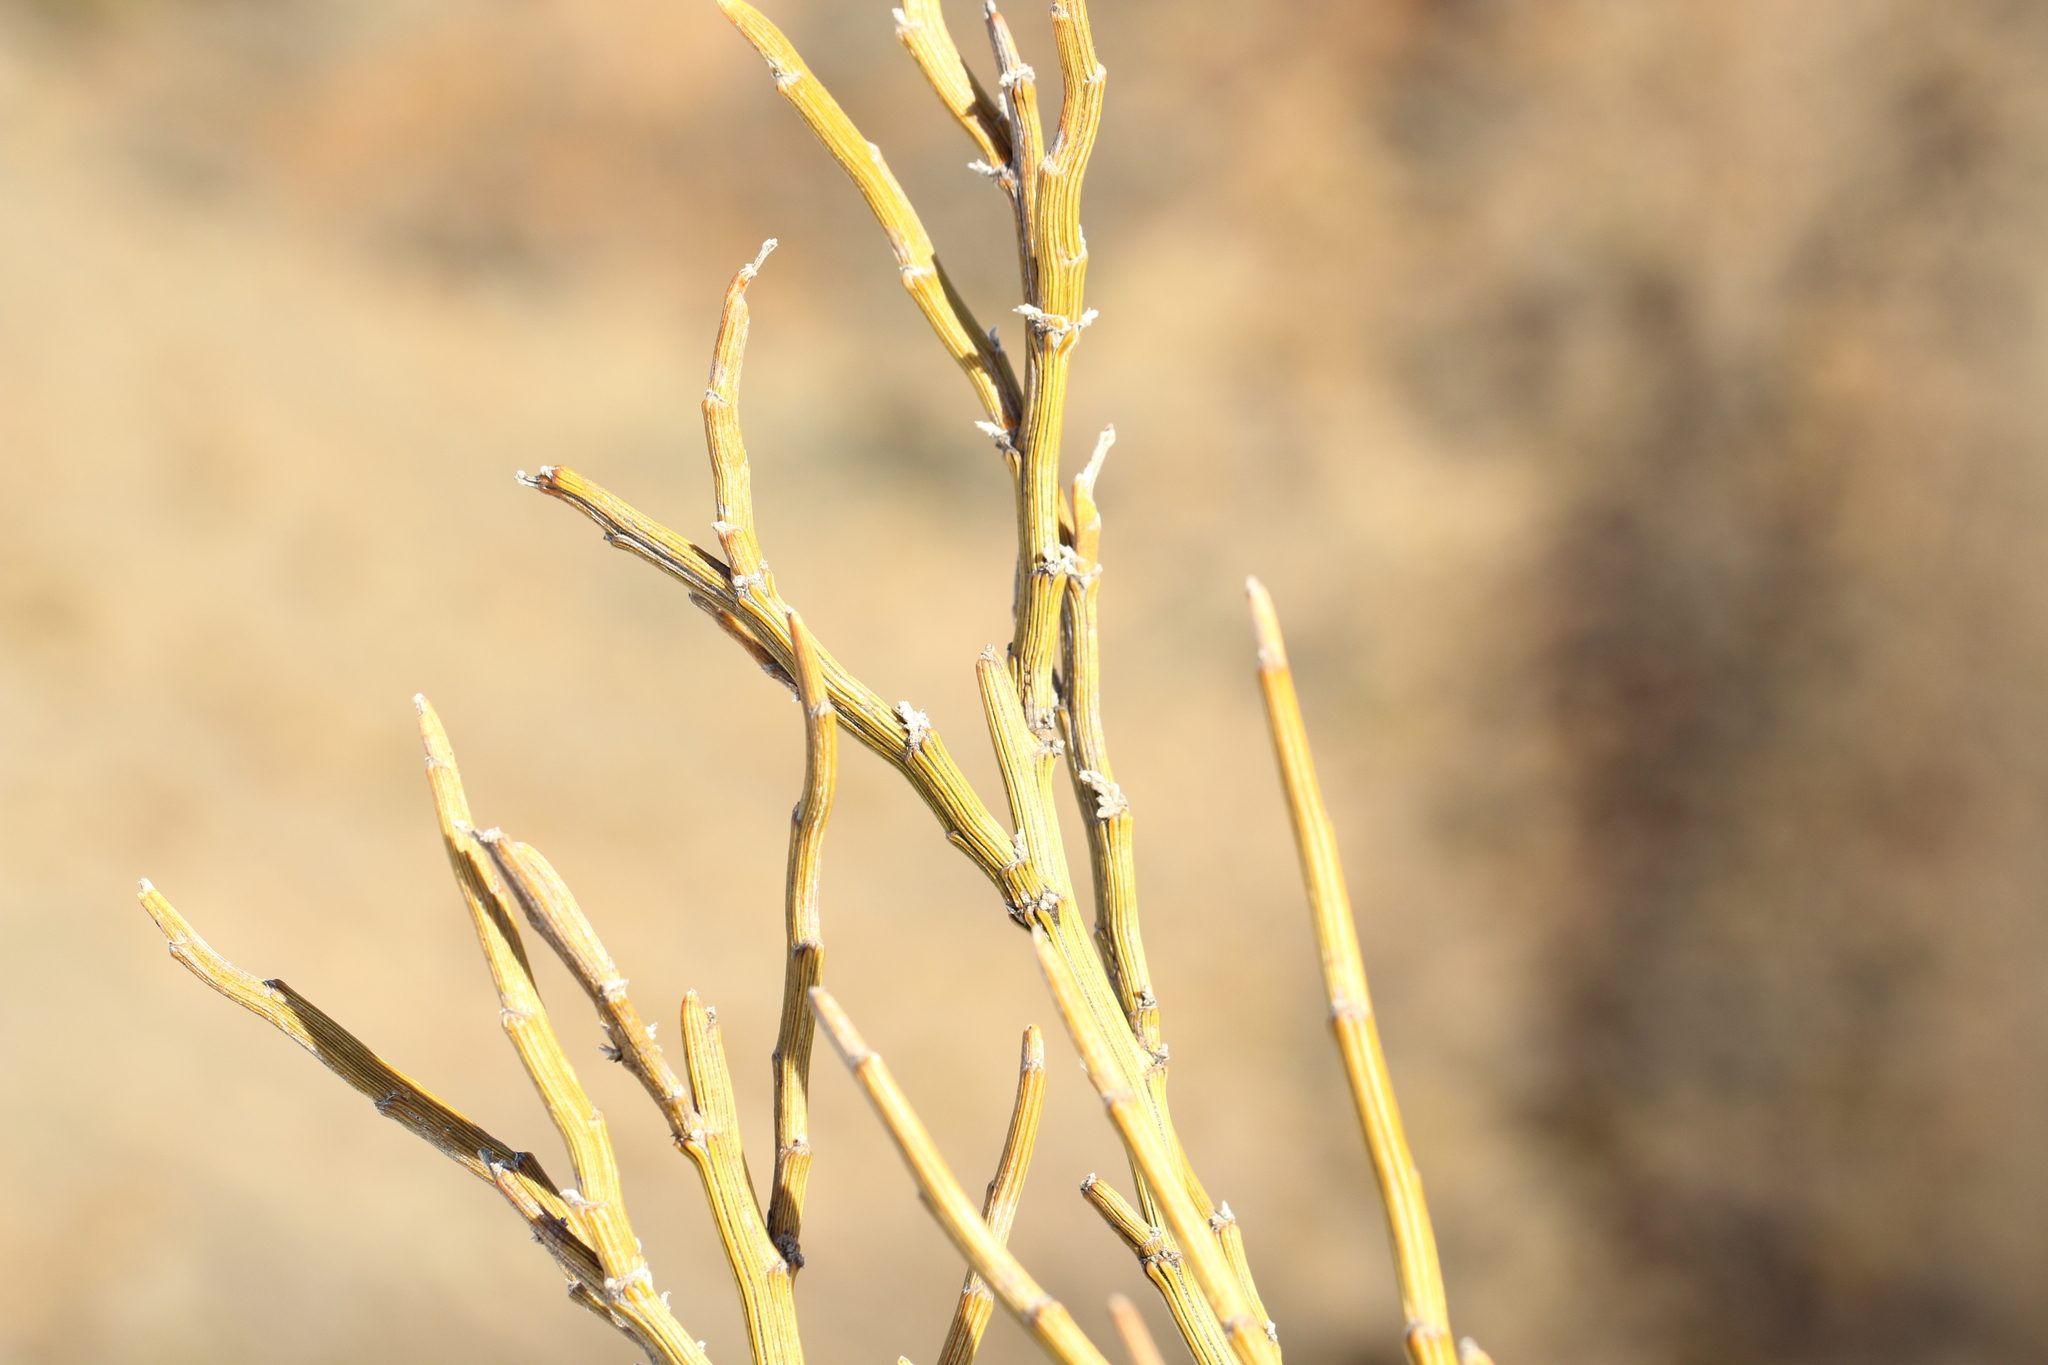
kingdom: Plantae
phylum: Tracheophyta
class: Magnoliopsida
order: Fabales
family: Fabaceae
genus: Carmichaelia
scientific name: Carmichaelia crassicaulis
